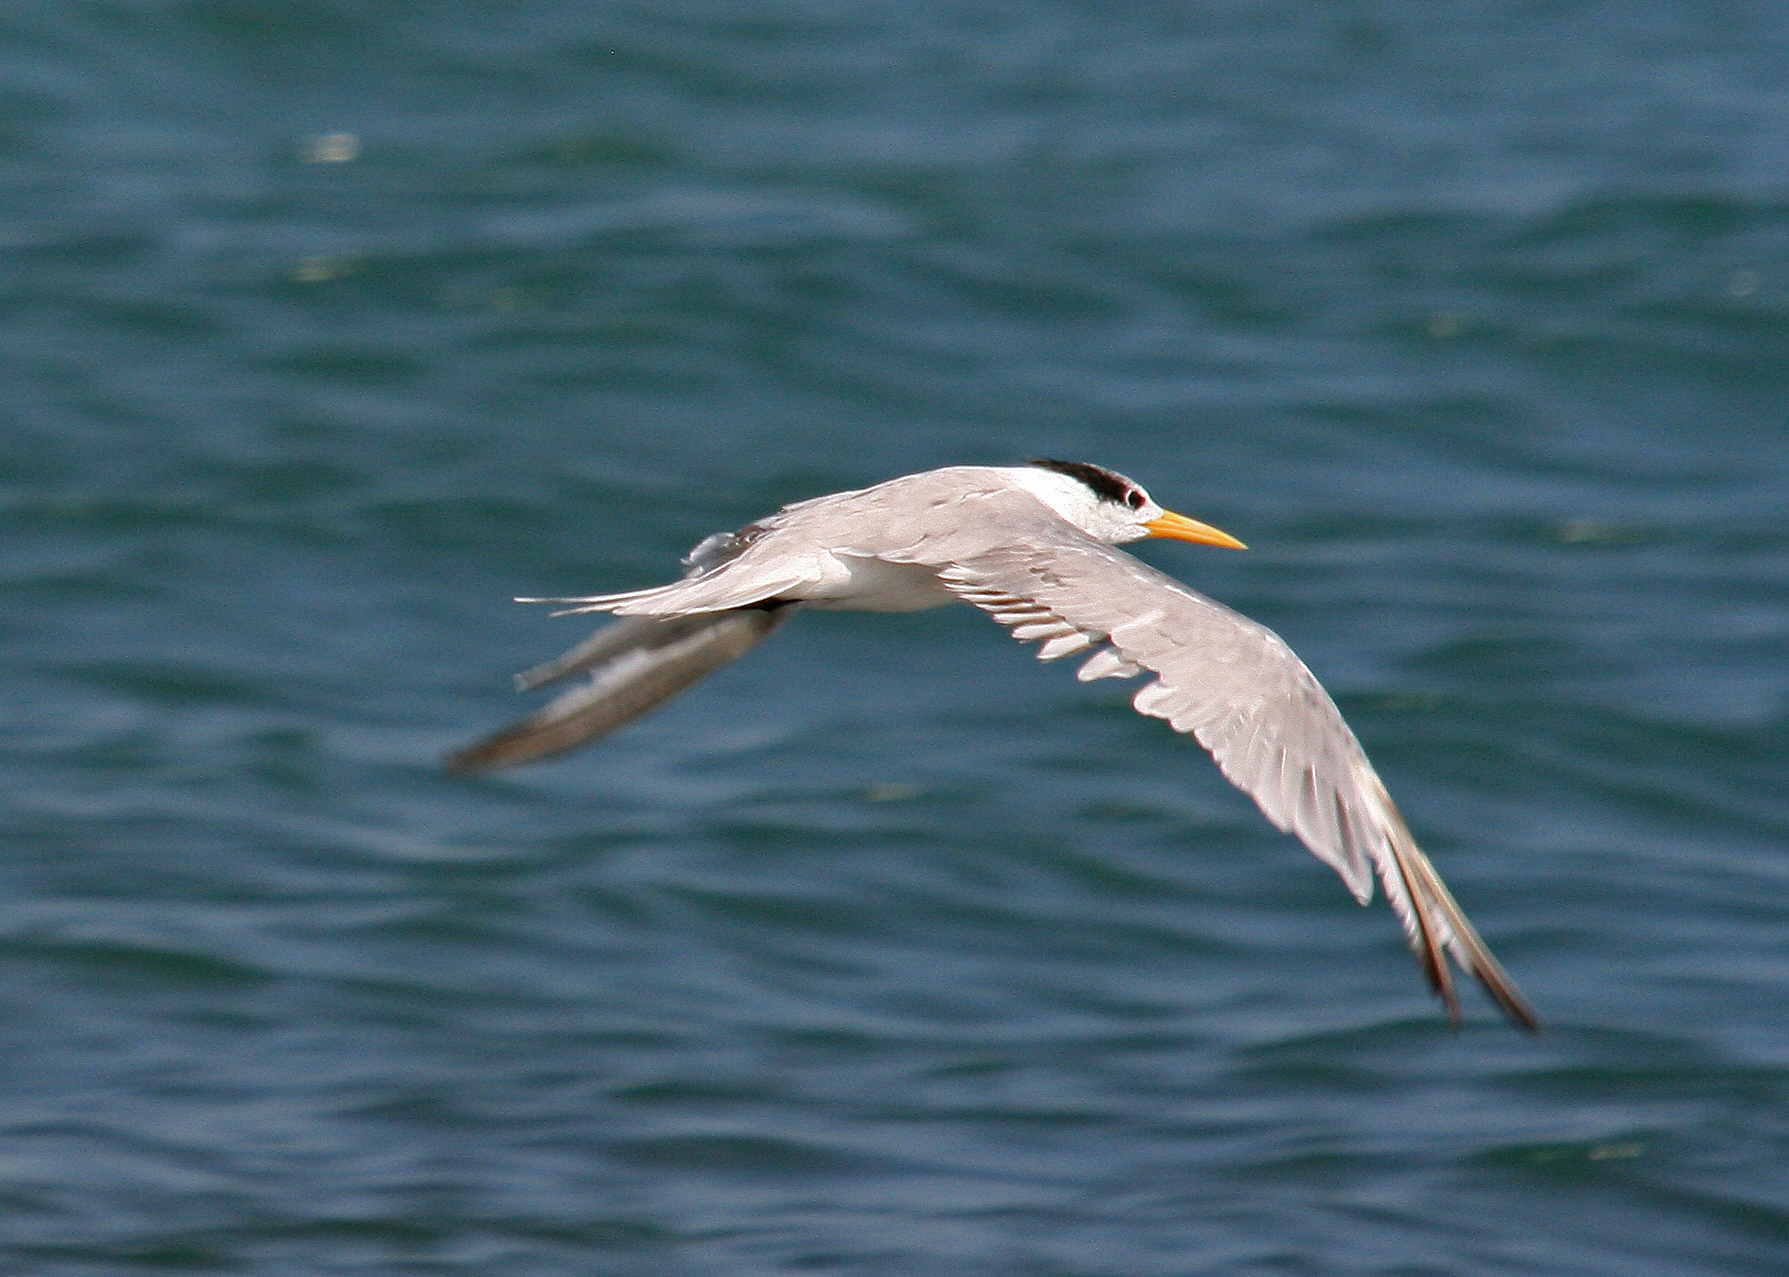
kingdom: Animalia
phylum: Chordata
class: Aves
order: Charadriiformes
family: Laridae
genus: Thalasseus
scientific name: Thalasseus bengalensis
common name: Lesser crested tern
